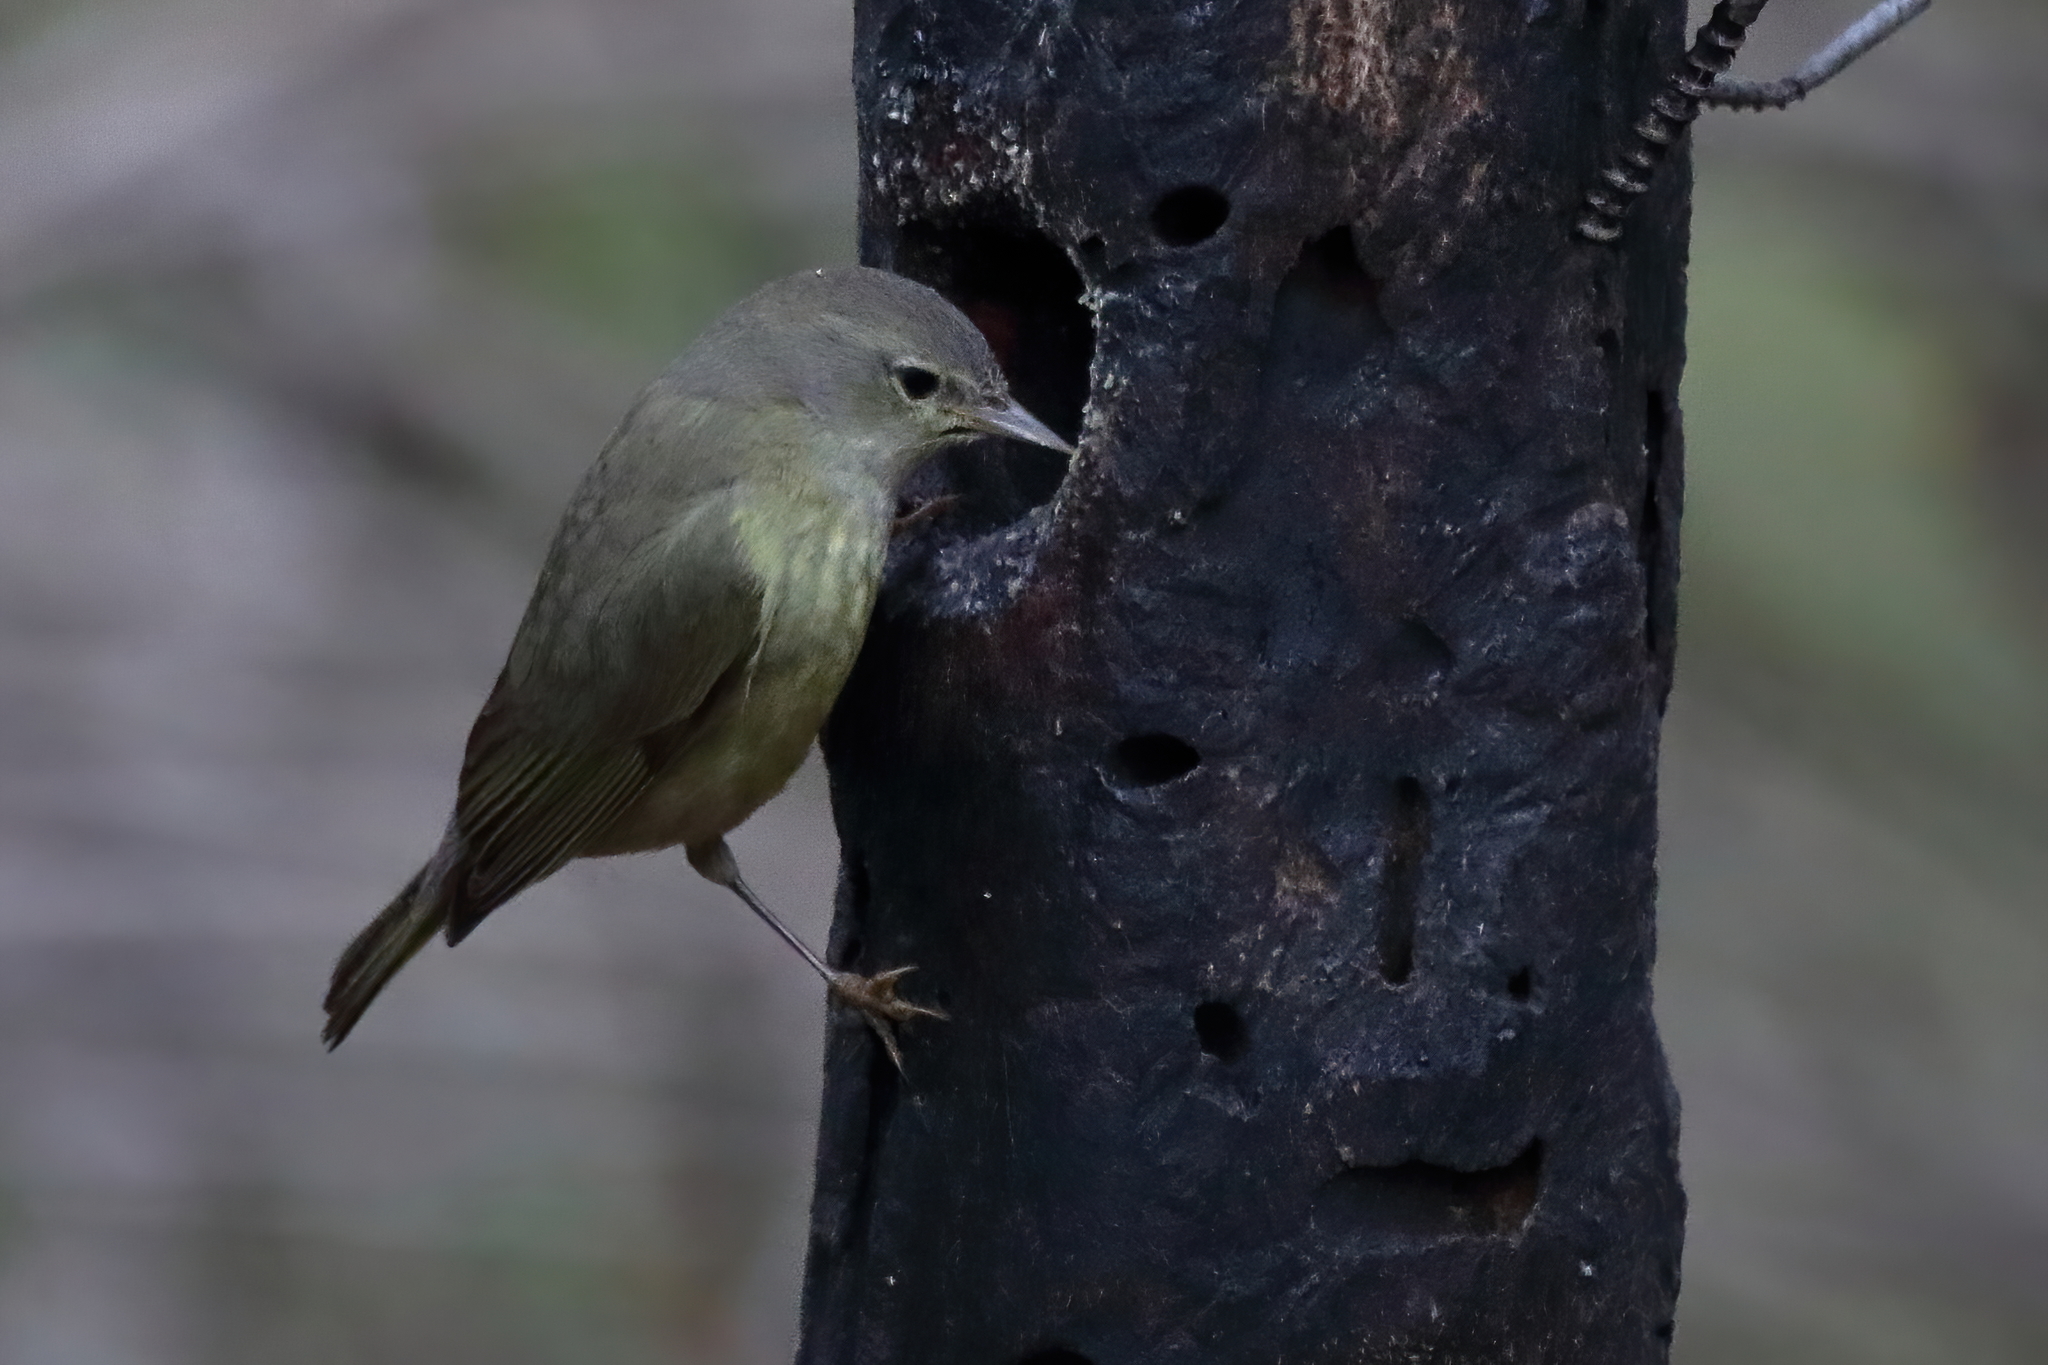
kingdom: Animalia
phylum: Chordata
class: Aves
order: Passeriformes
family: Parulidae
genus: Leiothlypis
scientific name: Leiothlypis celata
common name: Orange-crowned warbler
